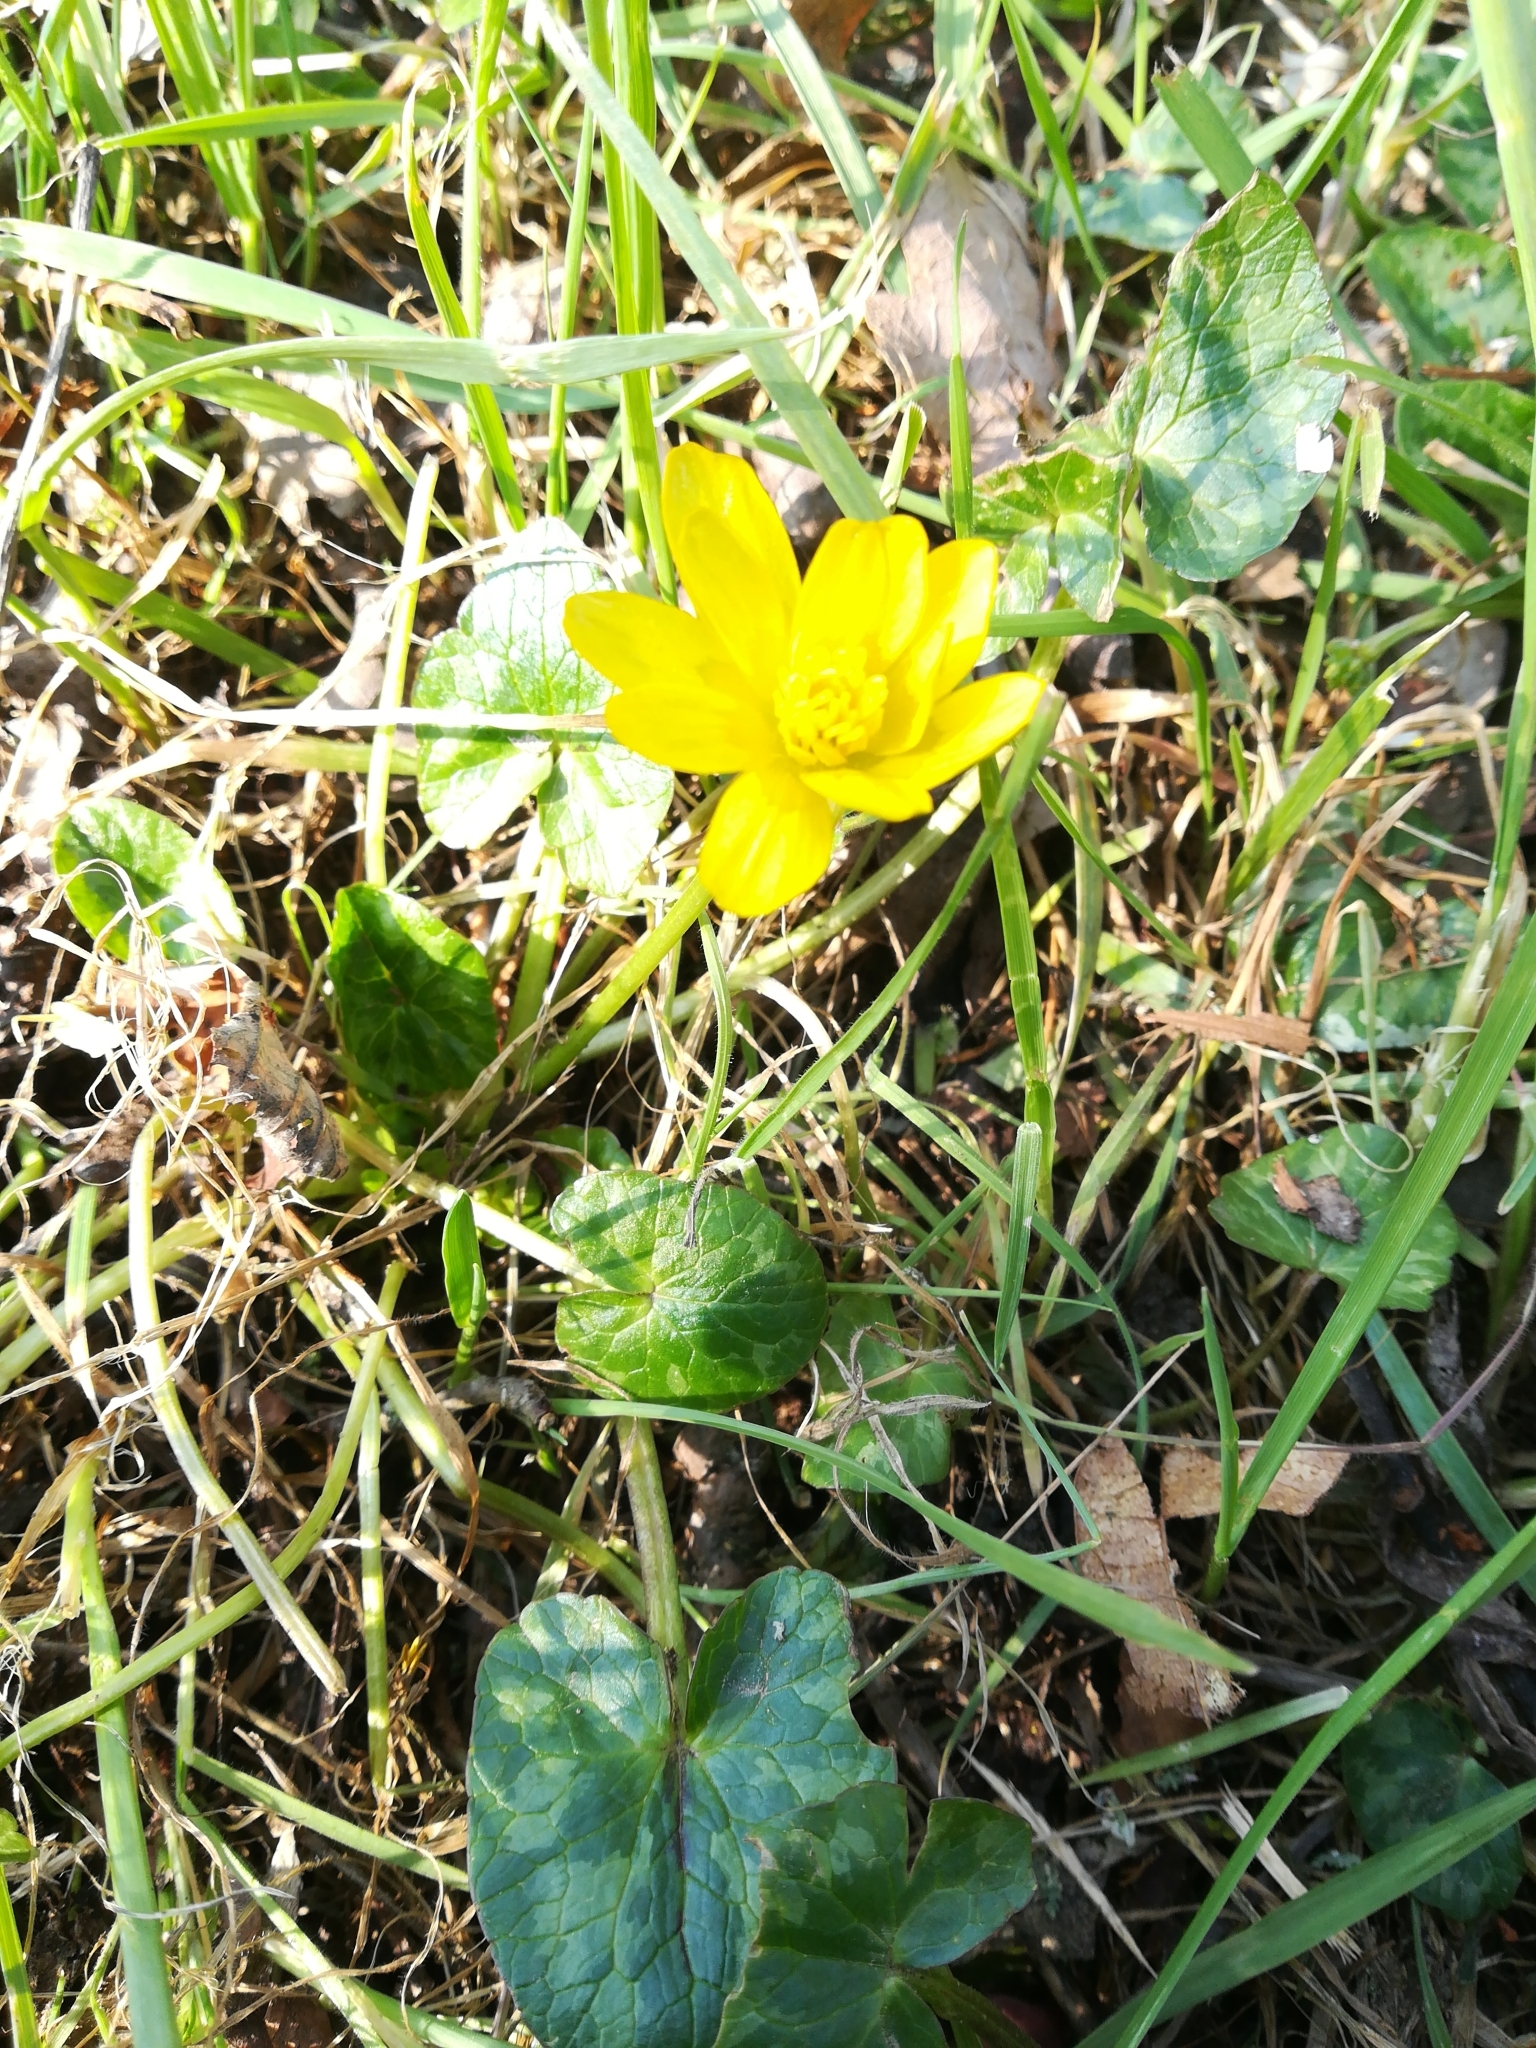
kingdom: Plantae
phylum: Tracheophyta
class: Magnoliopsida
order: Ranunculales
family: Ranunculaceae
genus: Ficaria
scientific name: Ficaria verna
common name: Lesser celandine
